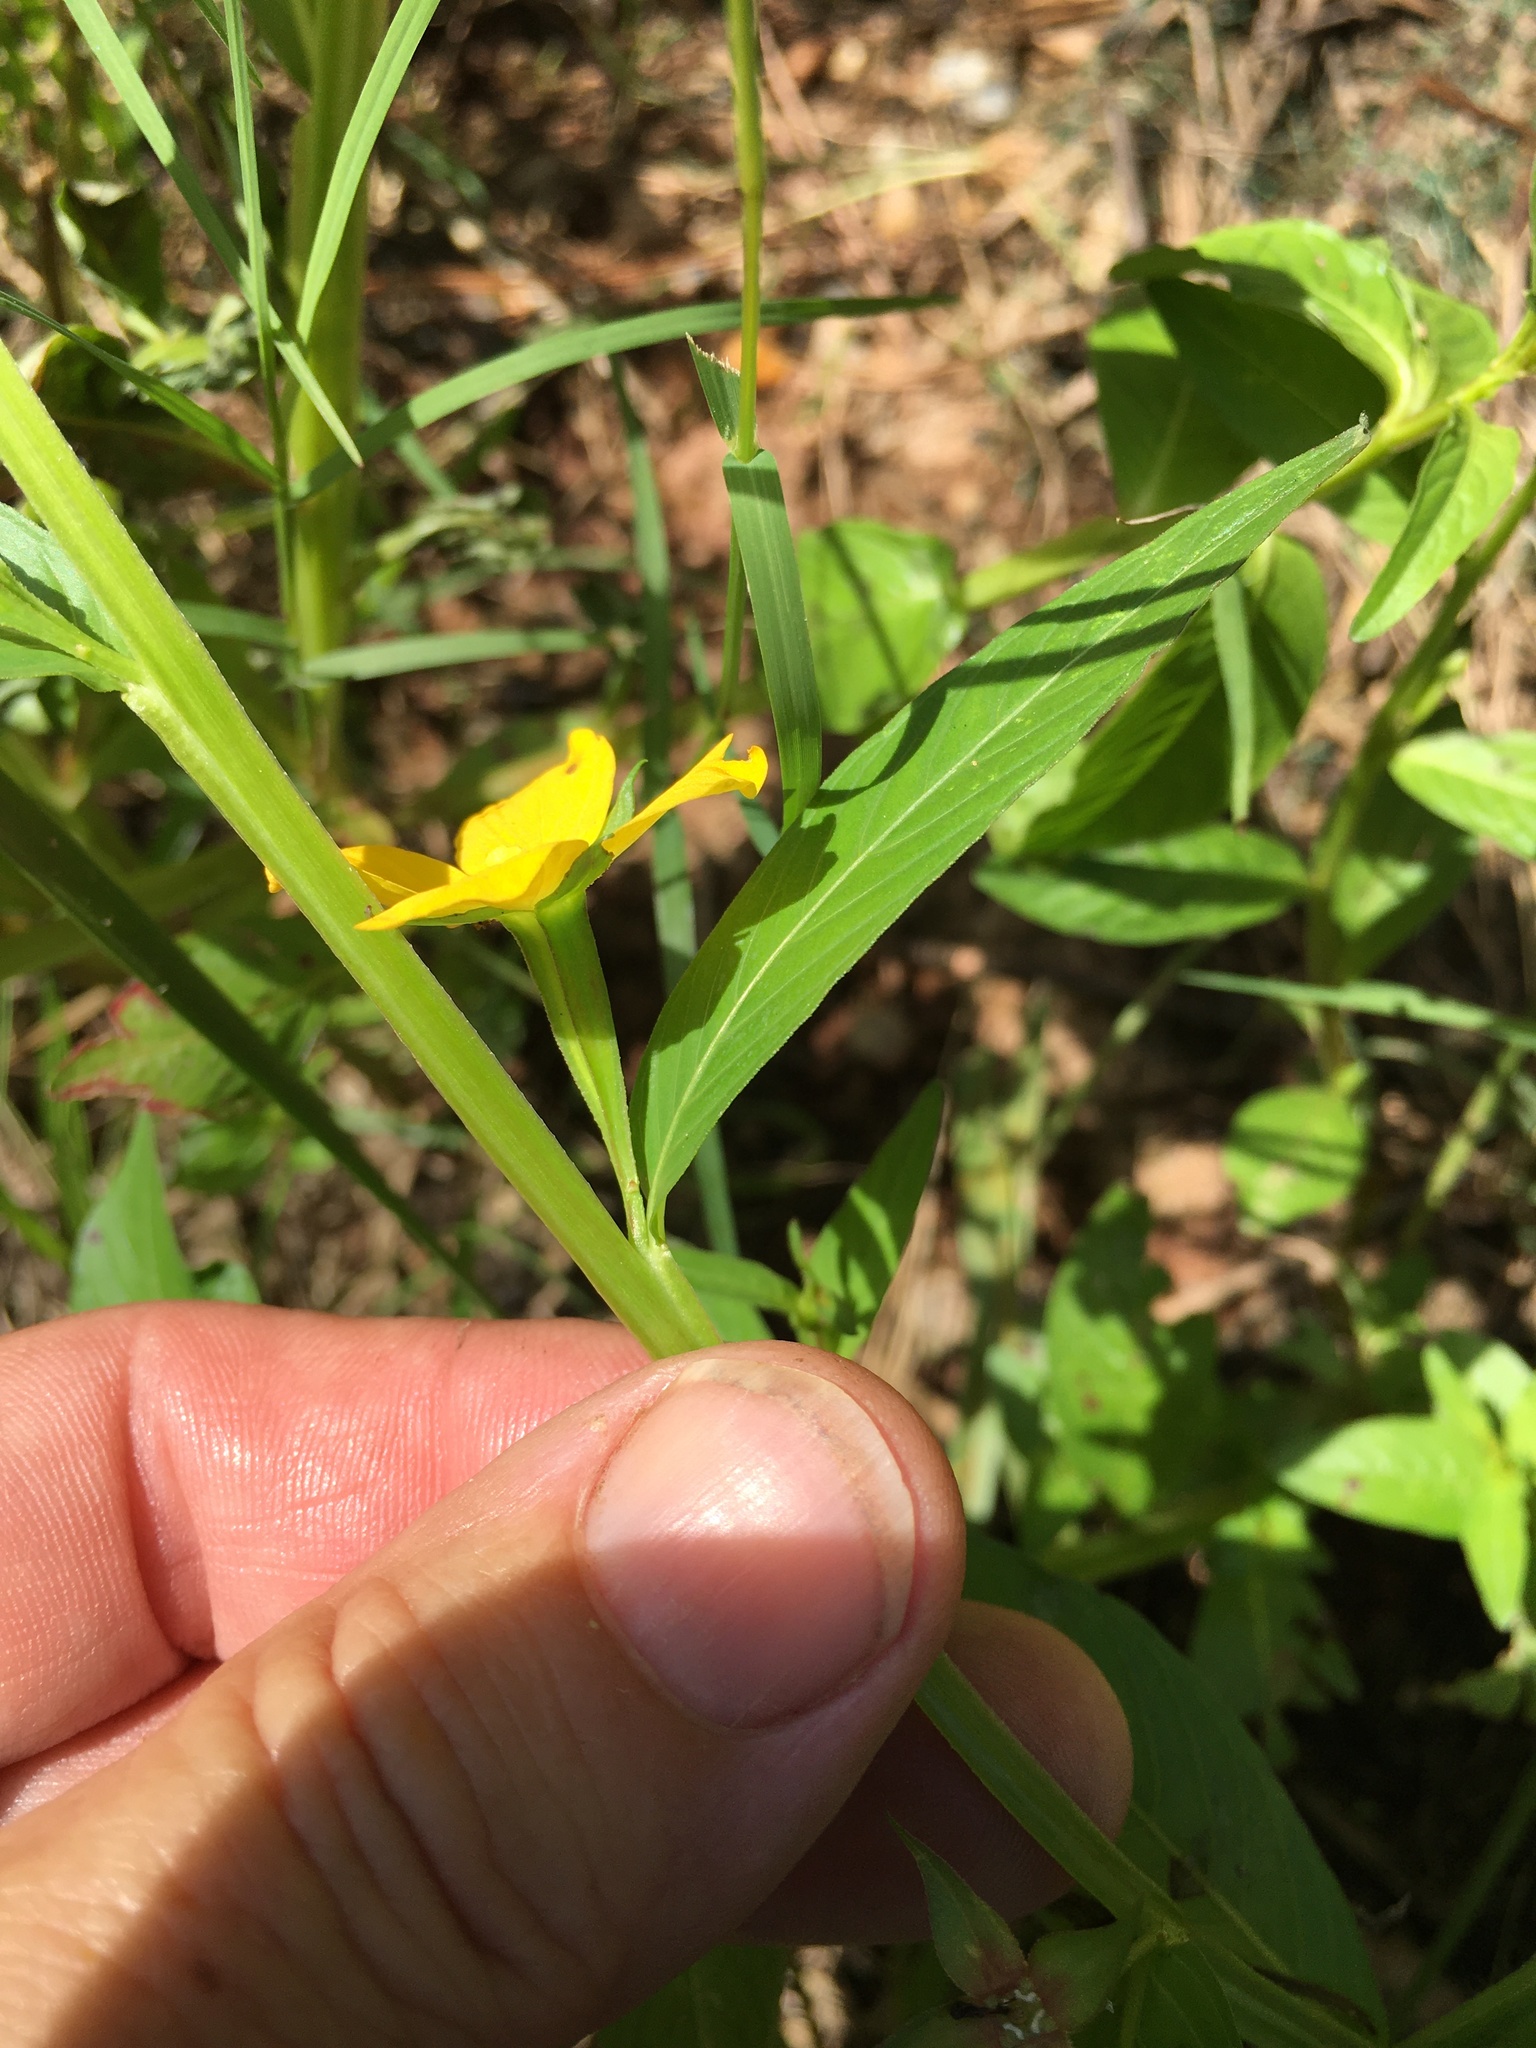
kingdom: Plantae
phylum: Tracheophyta
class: Magnoliopsida
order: Myrtales
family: Onagraceae
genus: Ludwigia
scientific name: Ludwigia decurrens
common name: Winged water-primrose
